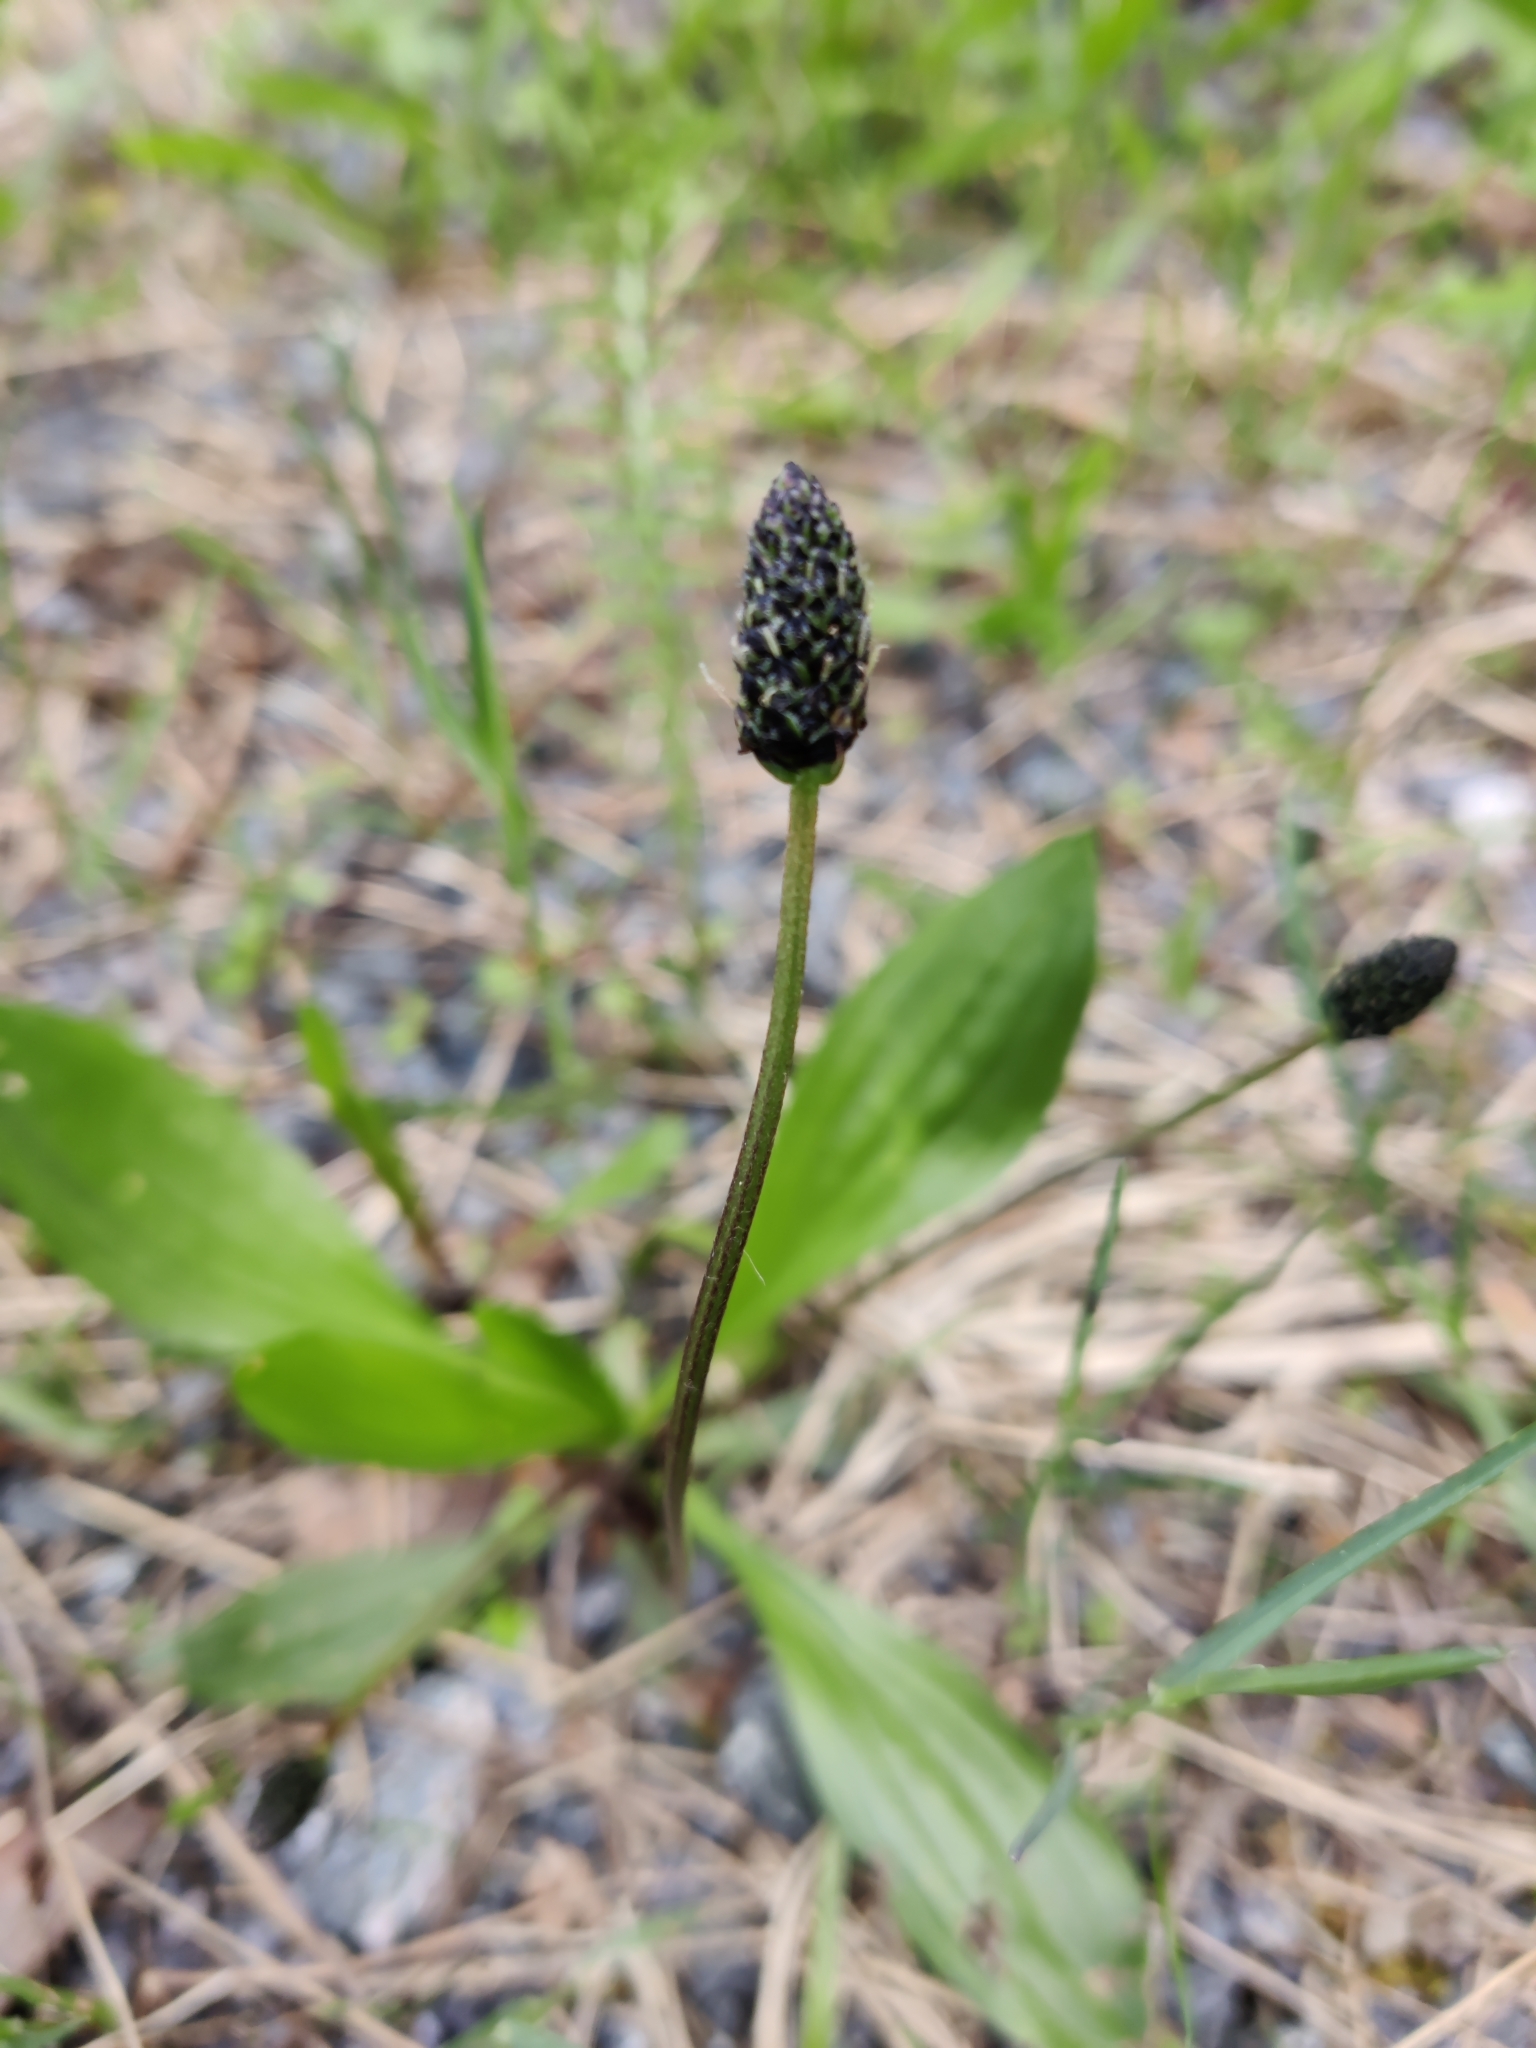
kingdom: Plantae
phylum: Tracheophyta
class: Magnoliopsida
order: Lamiales
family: Plantaginaceae
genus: Plantago
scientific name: Plantago lanceolata
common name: Ribwort plantain
